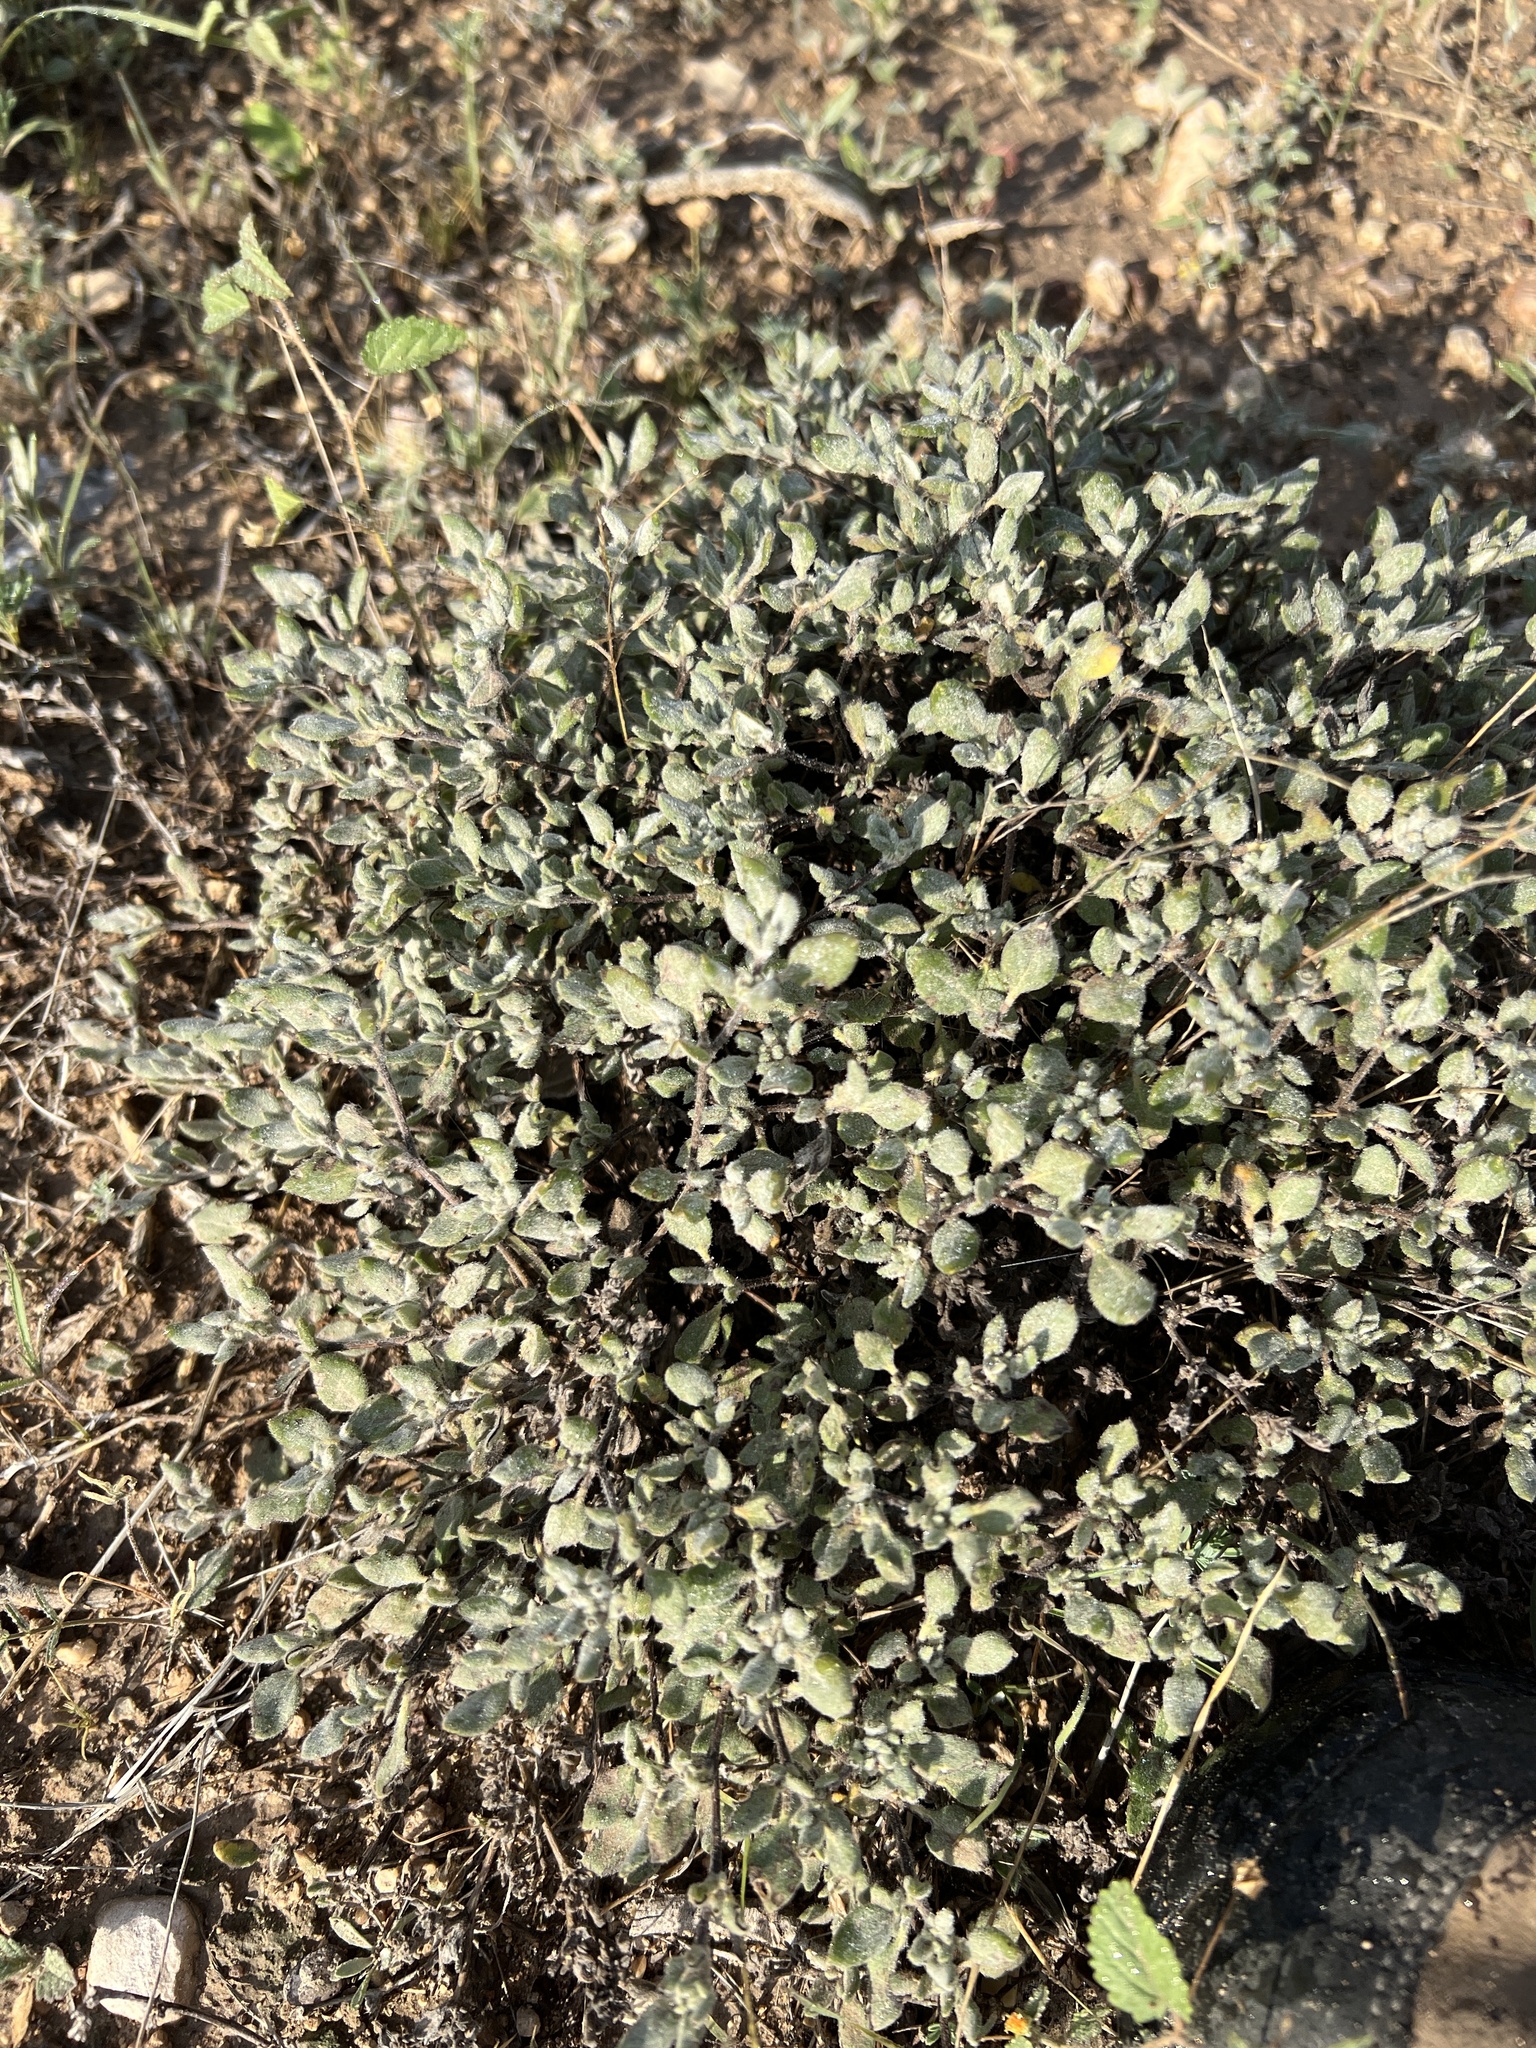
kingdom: Plantae
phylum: Tracheophyta
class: Magnoliopsida
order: Boraginales
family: Ehretiaceae
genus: Tiquilia
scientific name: Tiquilia canescens
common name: Hairy tiquilia
